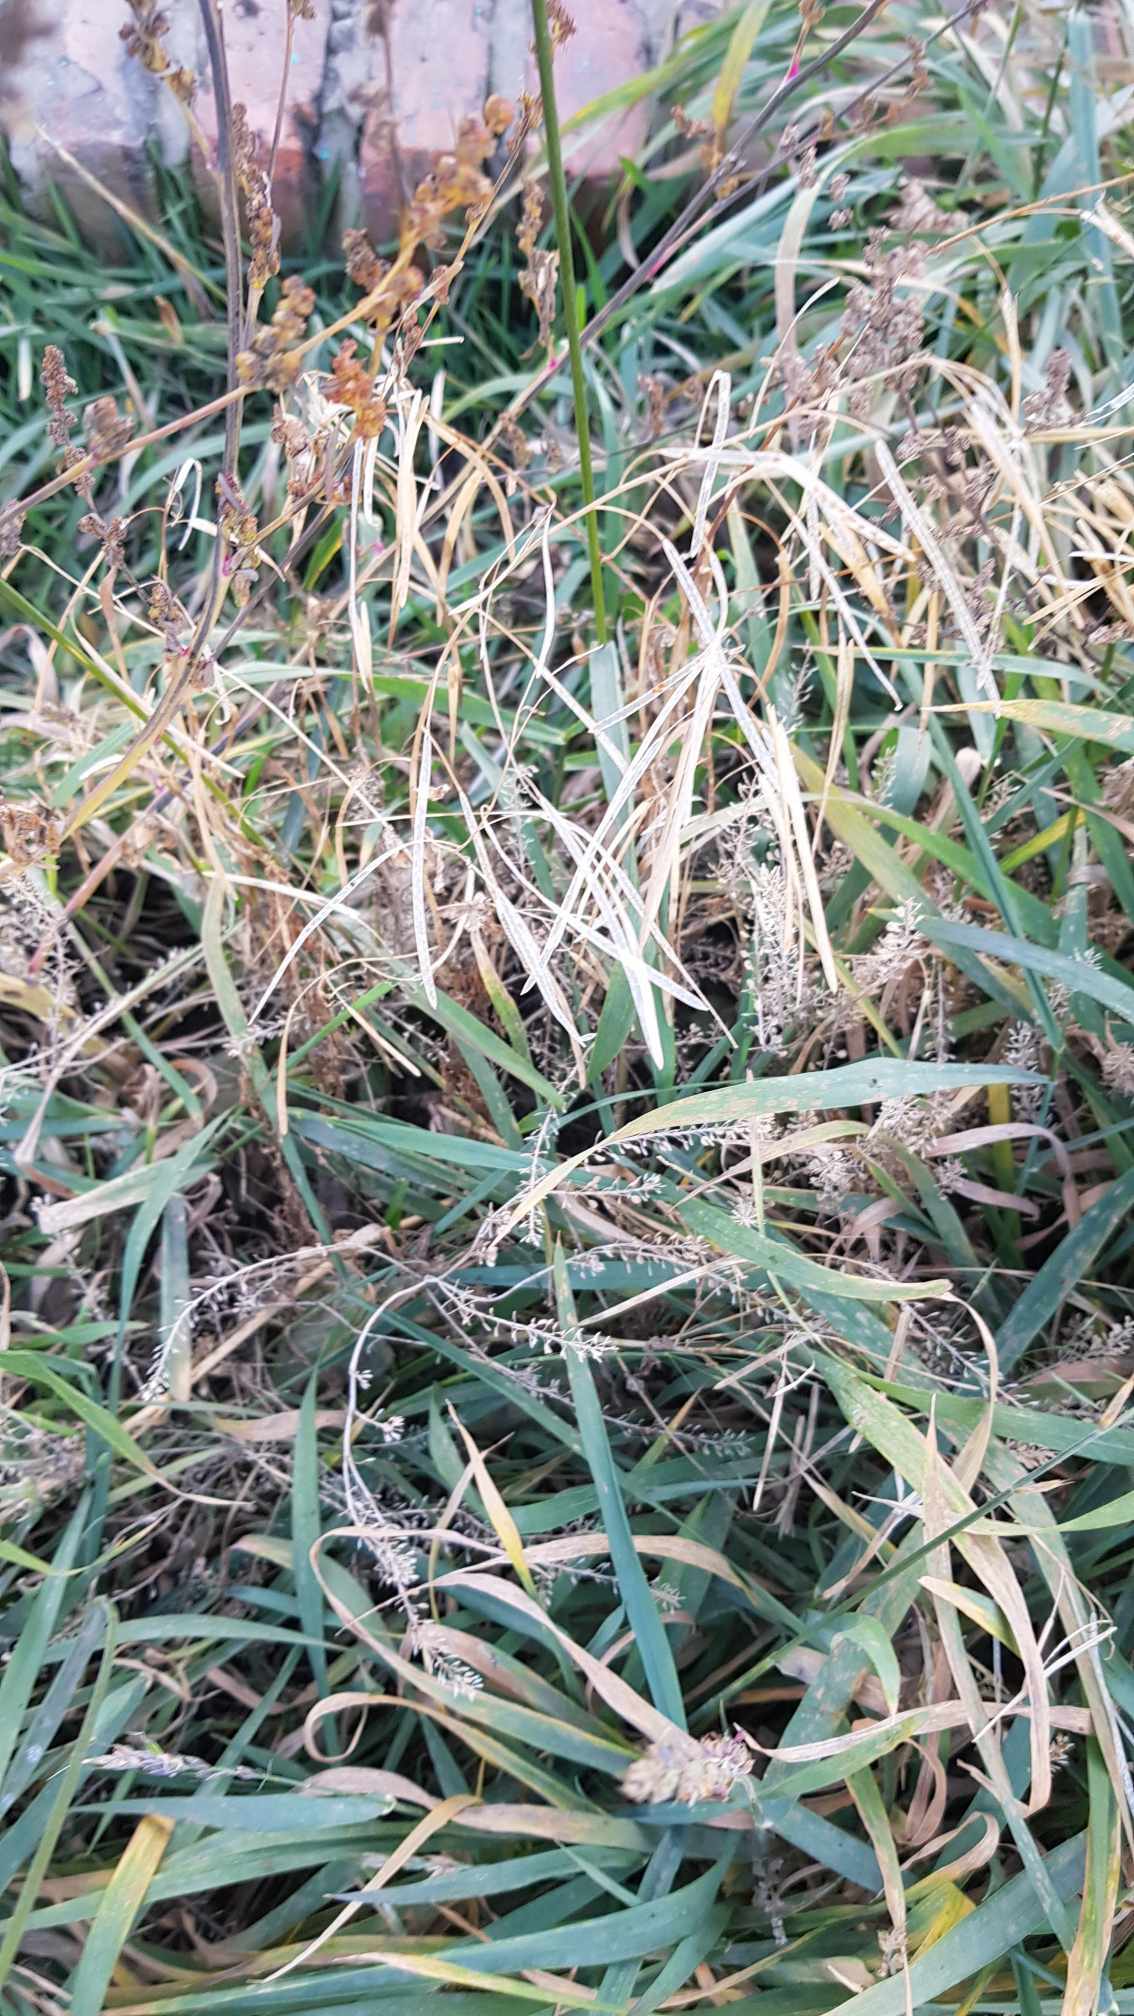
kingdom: Plantae
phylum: Tracheophyta
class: Liliopsida
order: Poales
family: Poaceae
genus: Bromus
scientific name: Bromus inermis
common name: Smooth brome
